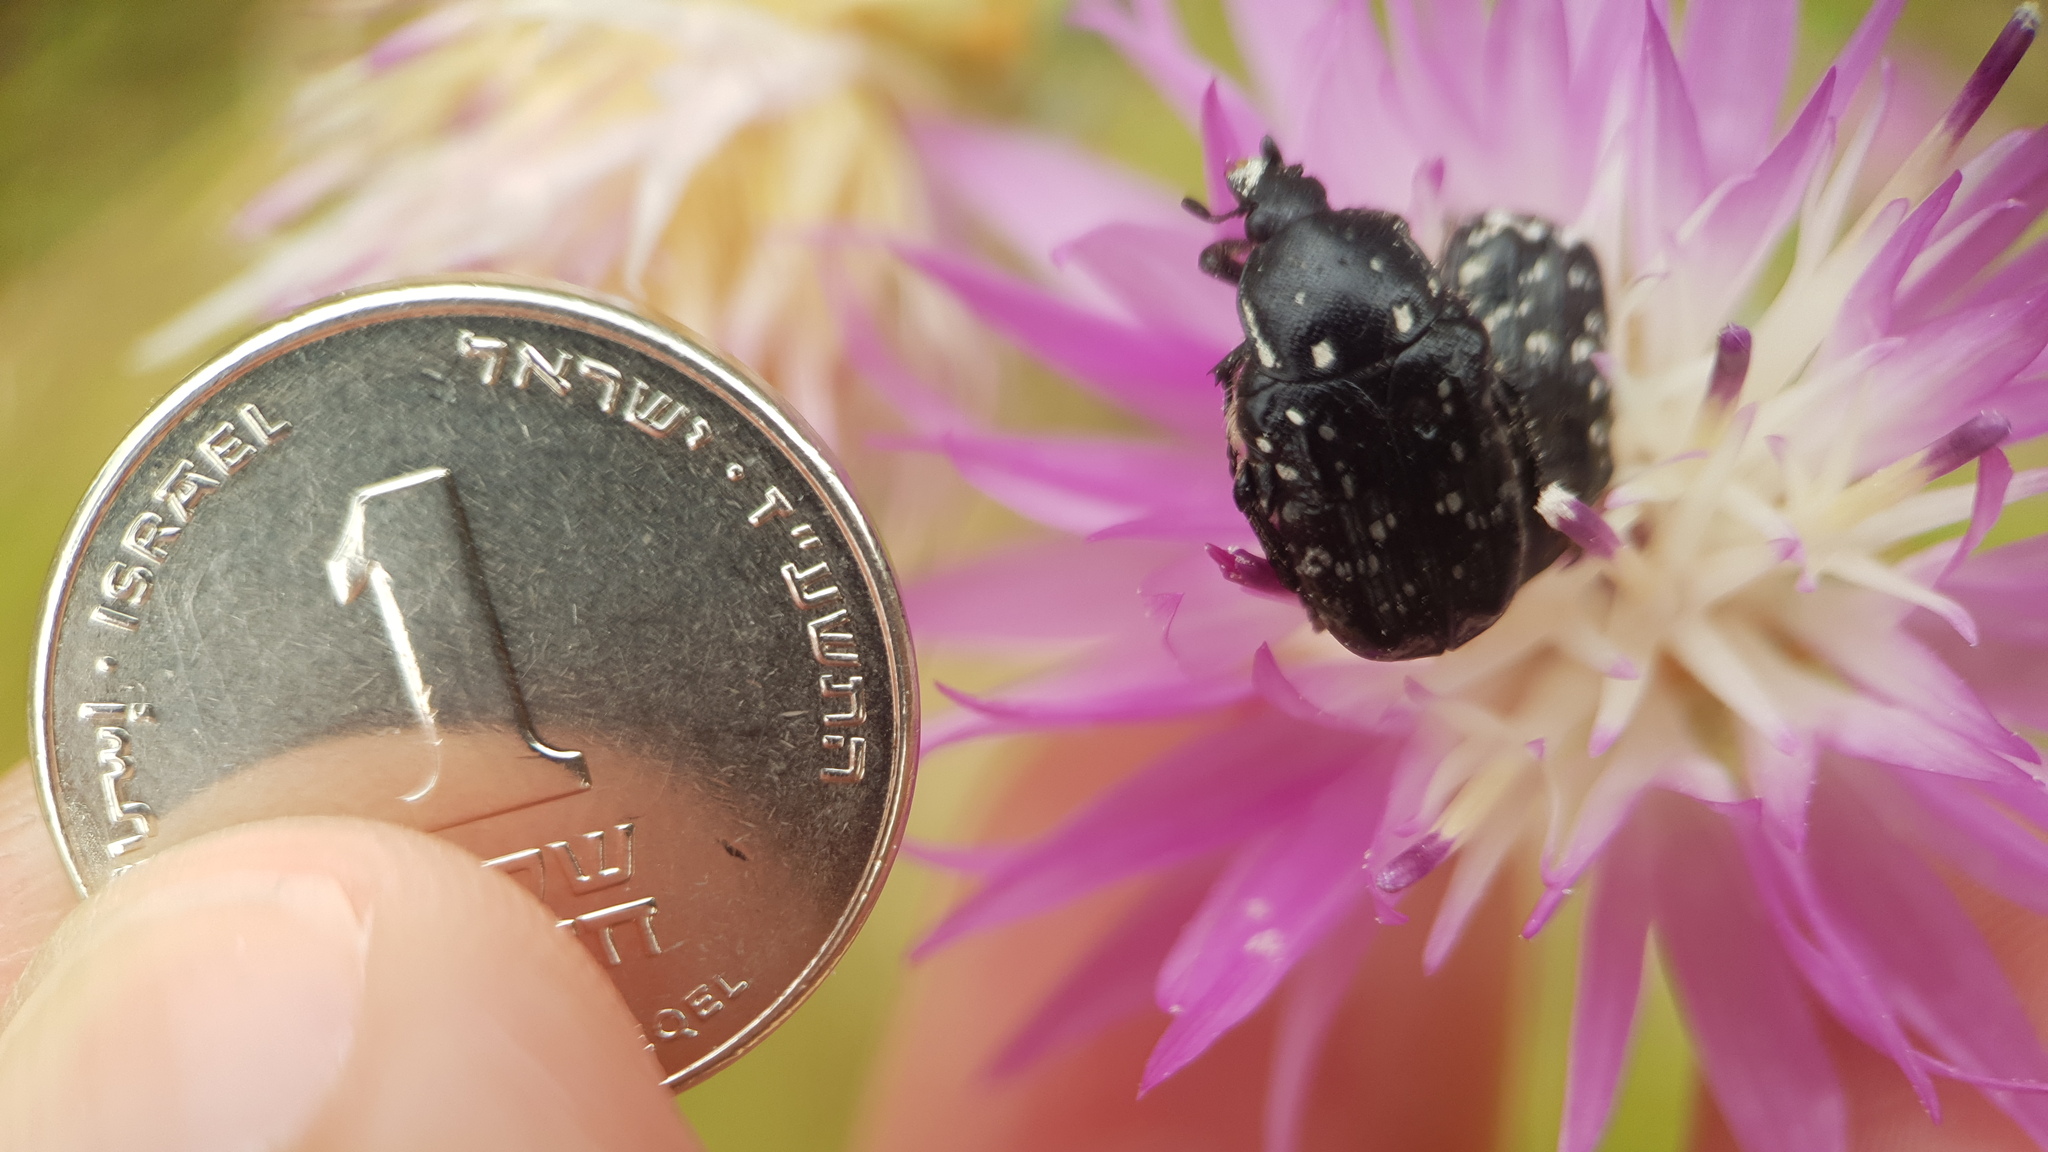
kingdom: Animalia
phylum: Arthropoda
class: Insecta
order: Coleoptera
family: Scarabaeidae
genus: Oxythyrea
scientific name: Oxythyrea noemi
